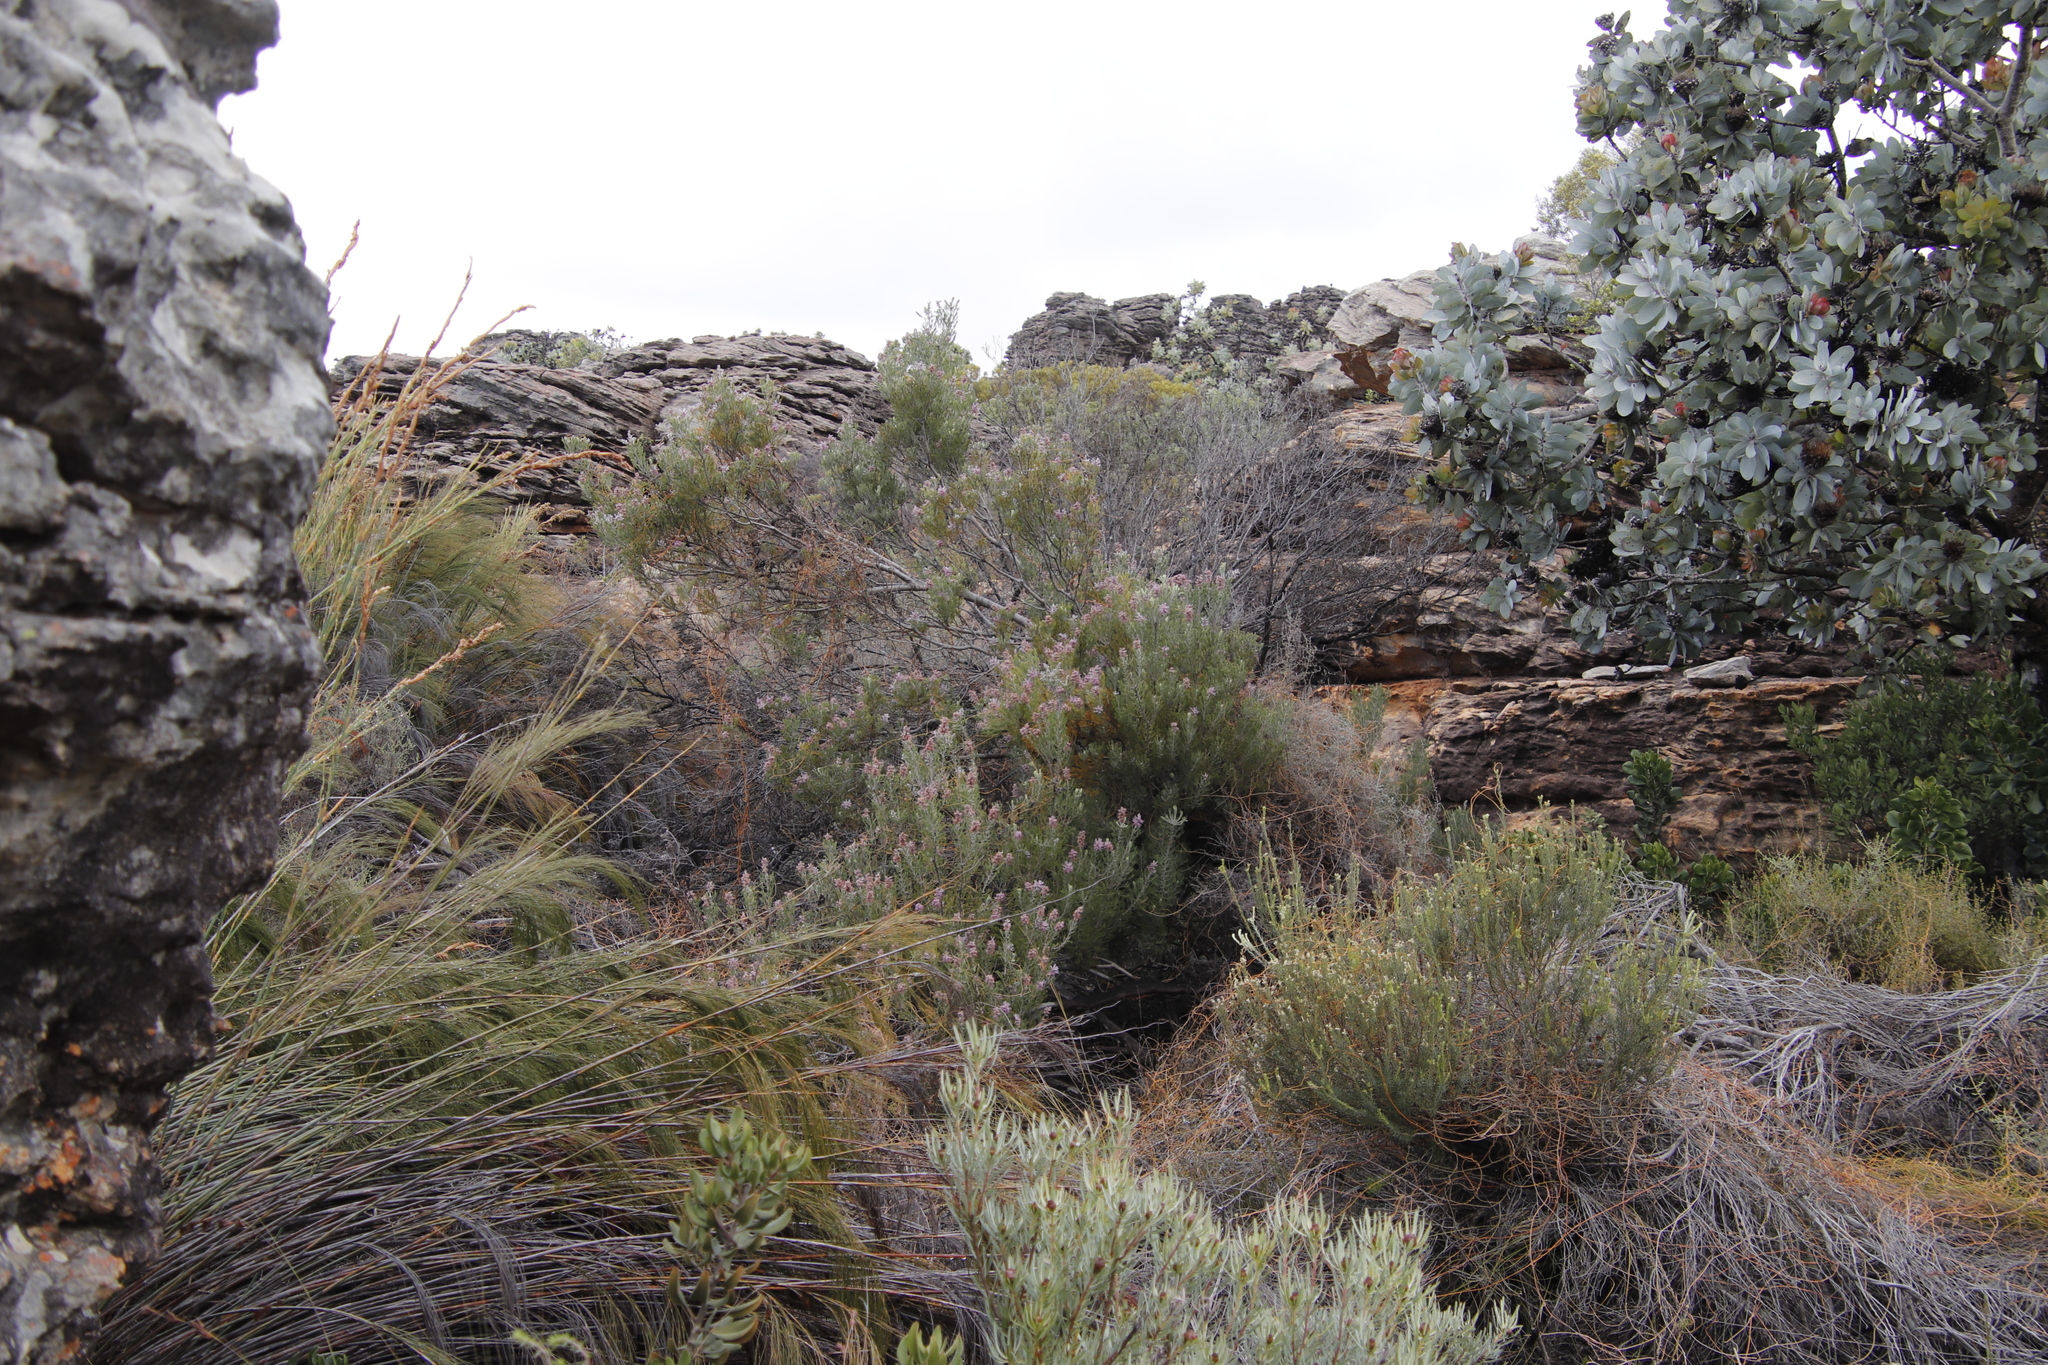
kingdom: Plantae
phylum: Tracheophyta
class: Magnoliopsida
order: Proteales
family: Proteaceae
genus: Paranomus
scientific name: Paranomus bracteolaris
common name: Bokkeveld tree sceptre
